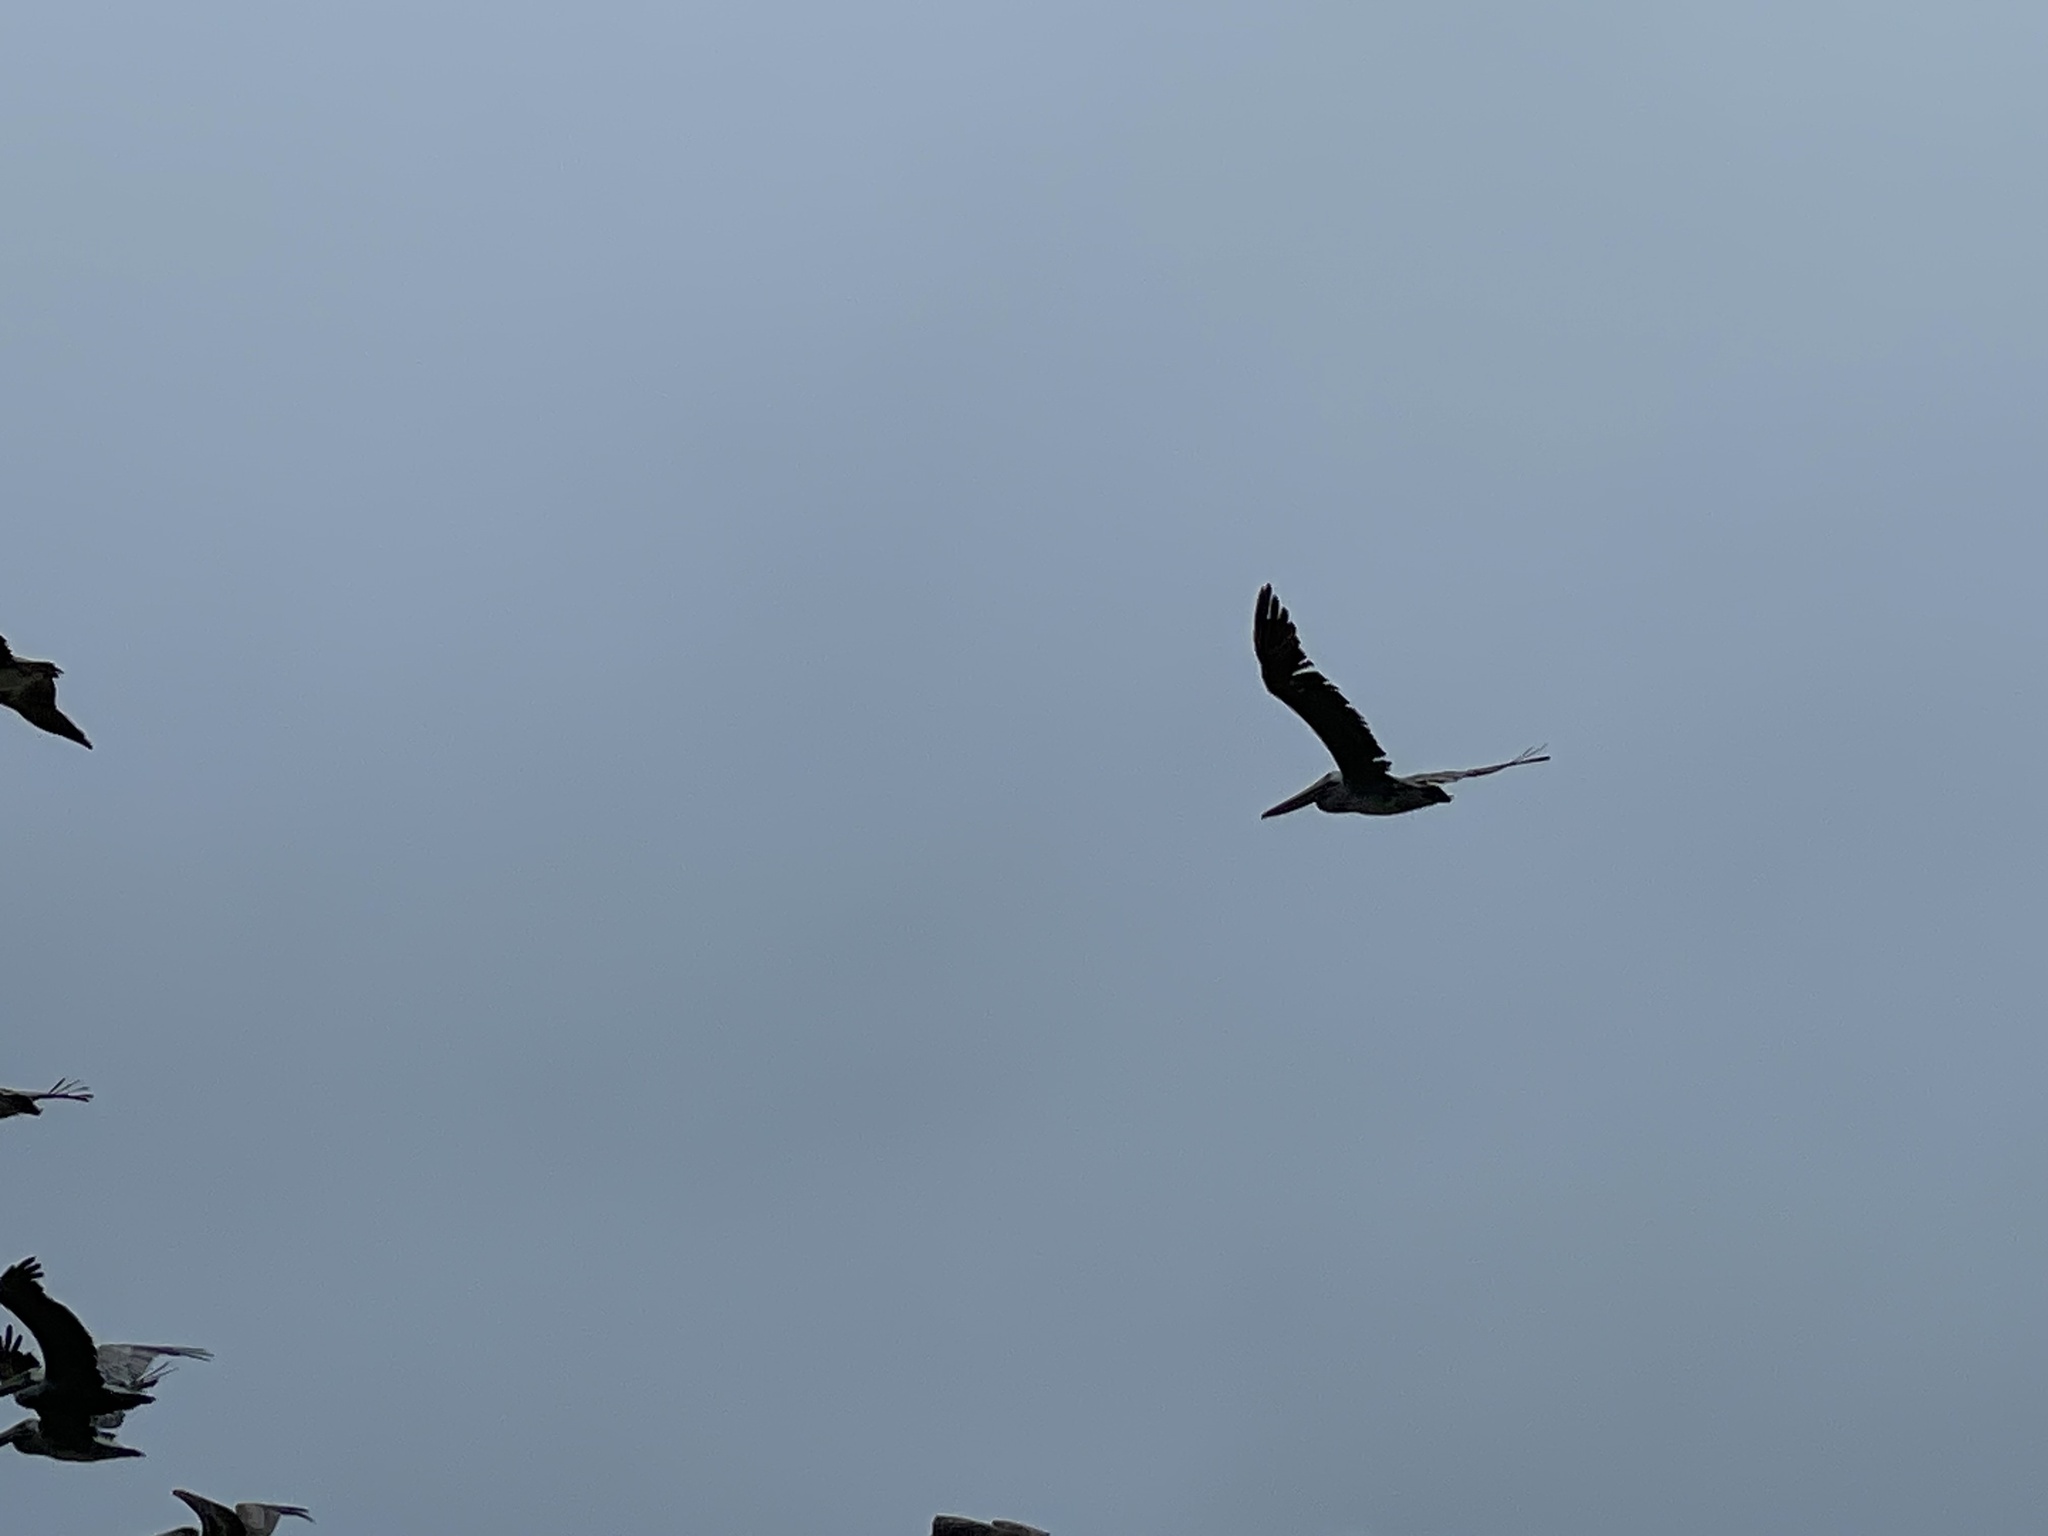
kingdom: Animalia
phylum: Chordata
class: Aves
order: Pelecaniformes
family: Pelecanidae
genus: Pelecanus
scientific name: Pelecanus occidentalis
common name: Brown pelican
